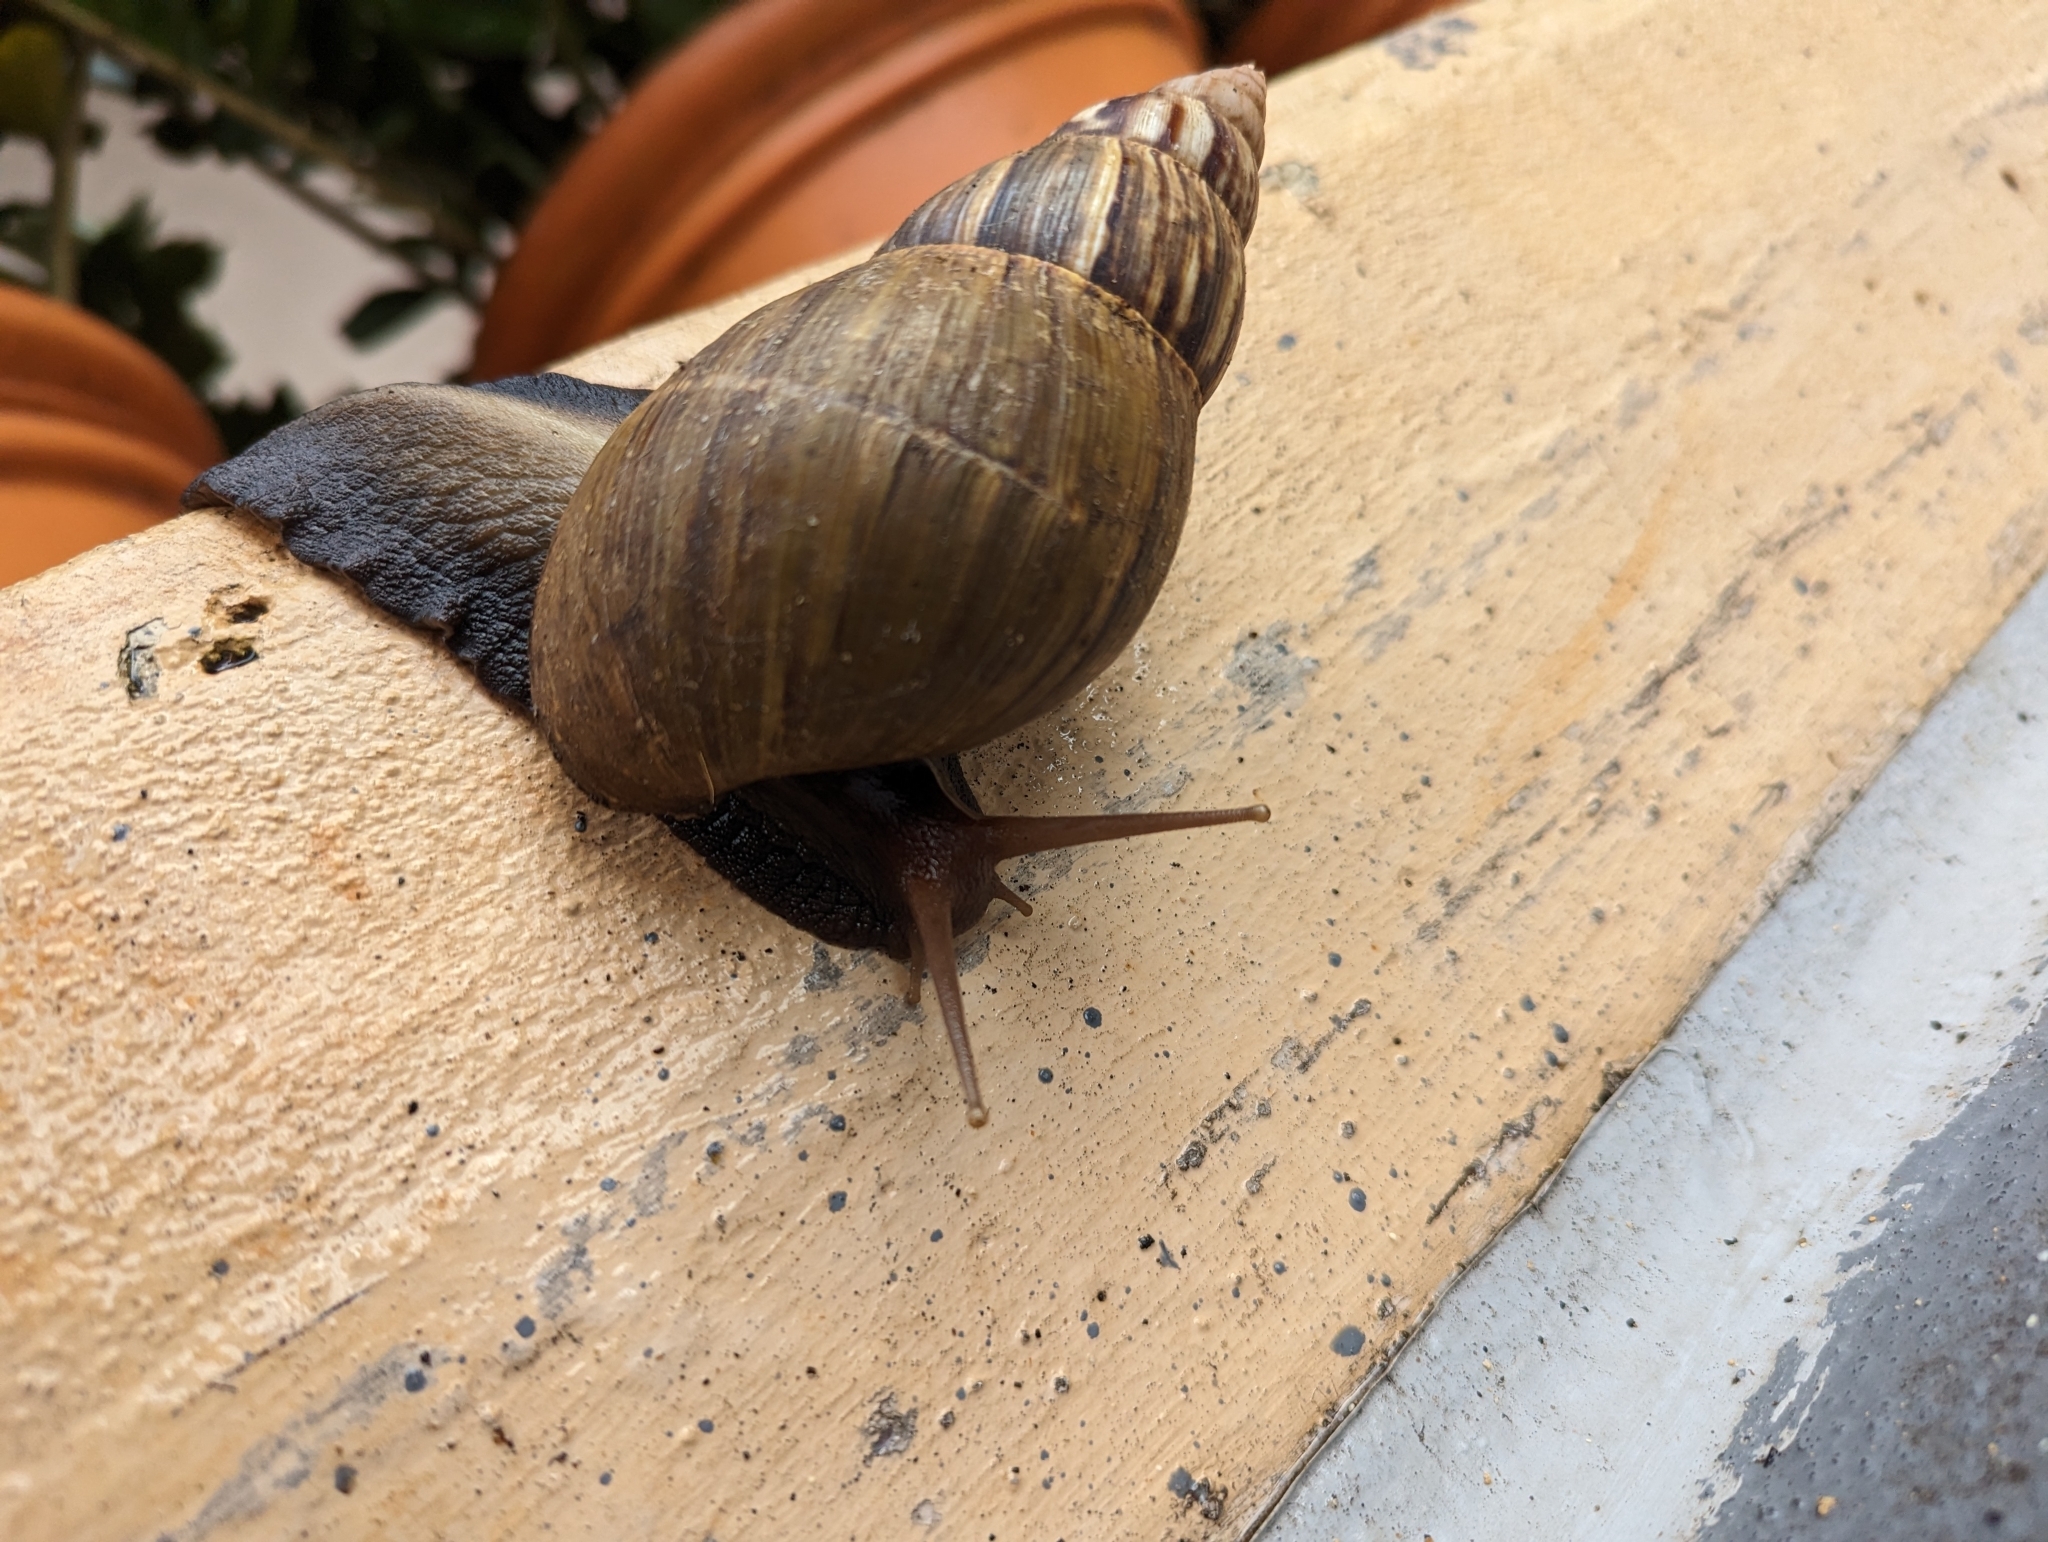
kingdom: Animalia
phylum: Mollusca
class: Gastropoda
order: Stylommatophora
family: Achatinidae
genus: Lissachatina
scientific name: Lissachatina fulica
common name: Giant african snail
